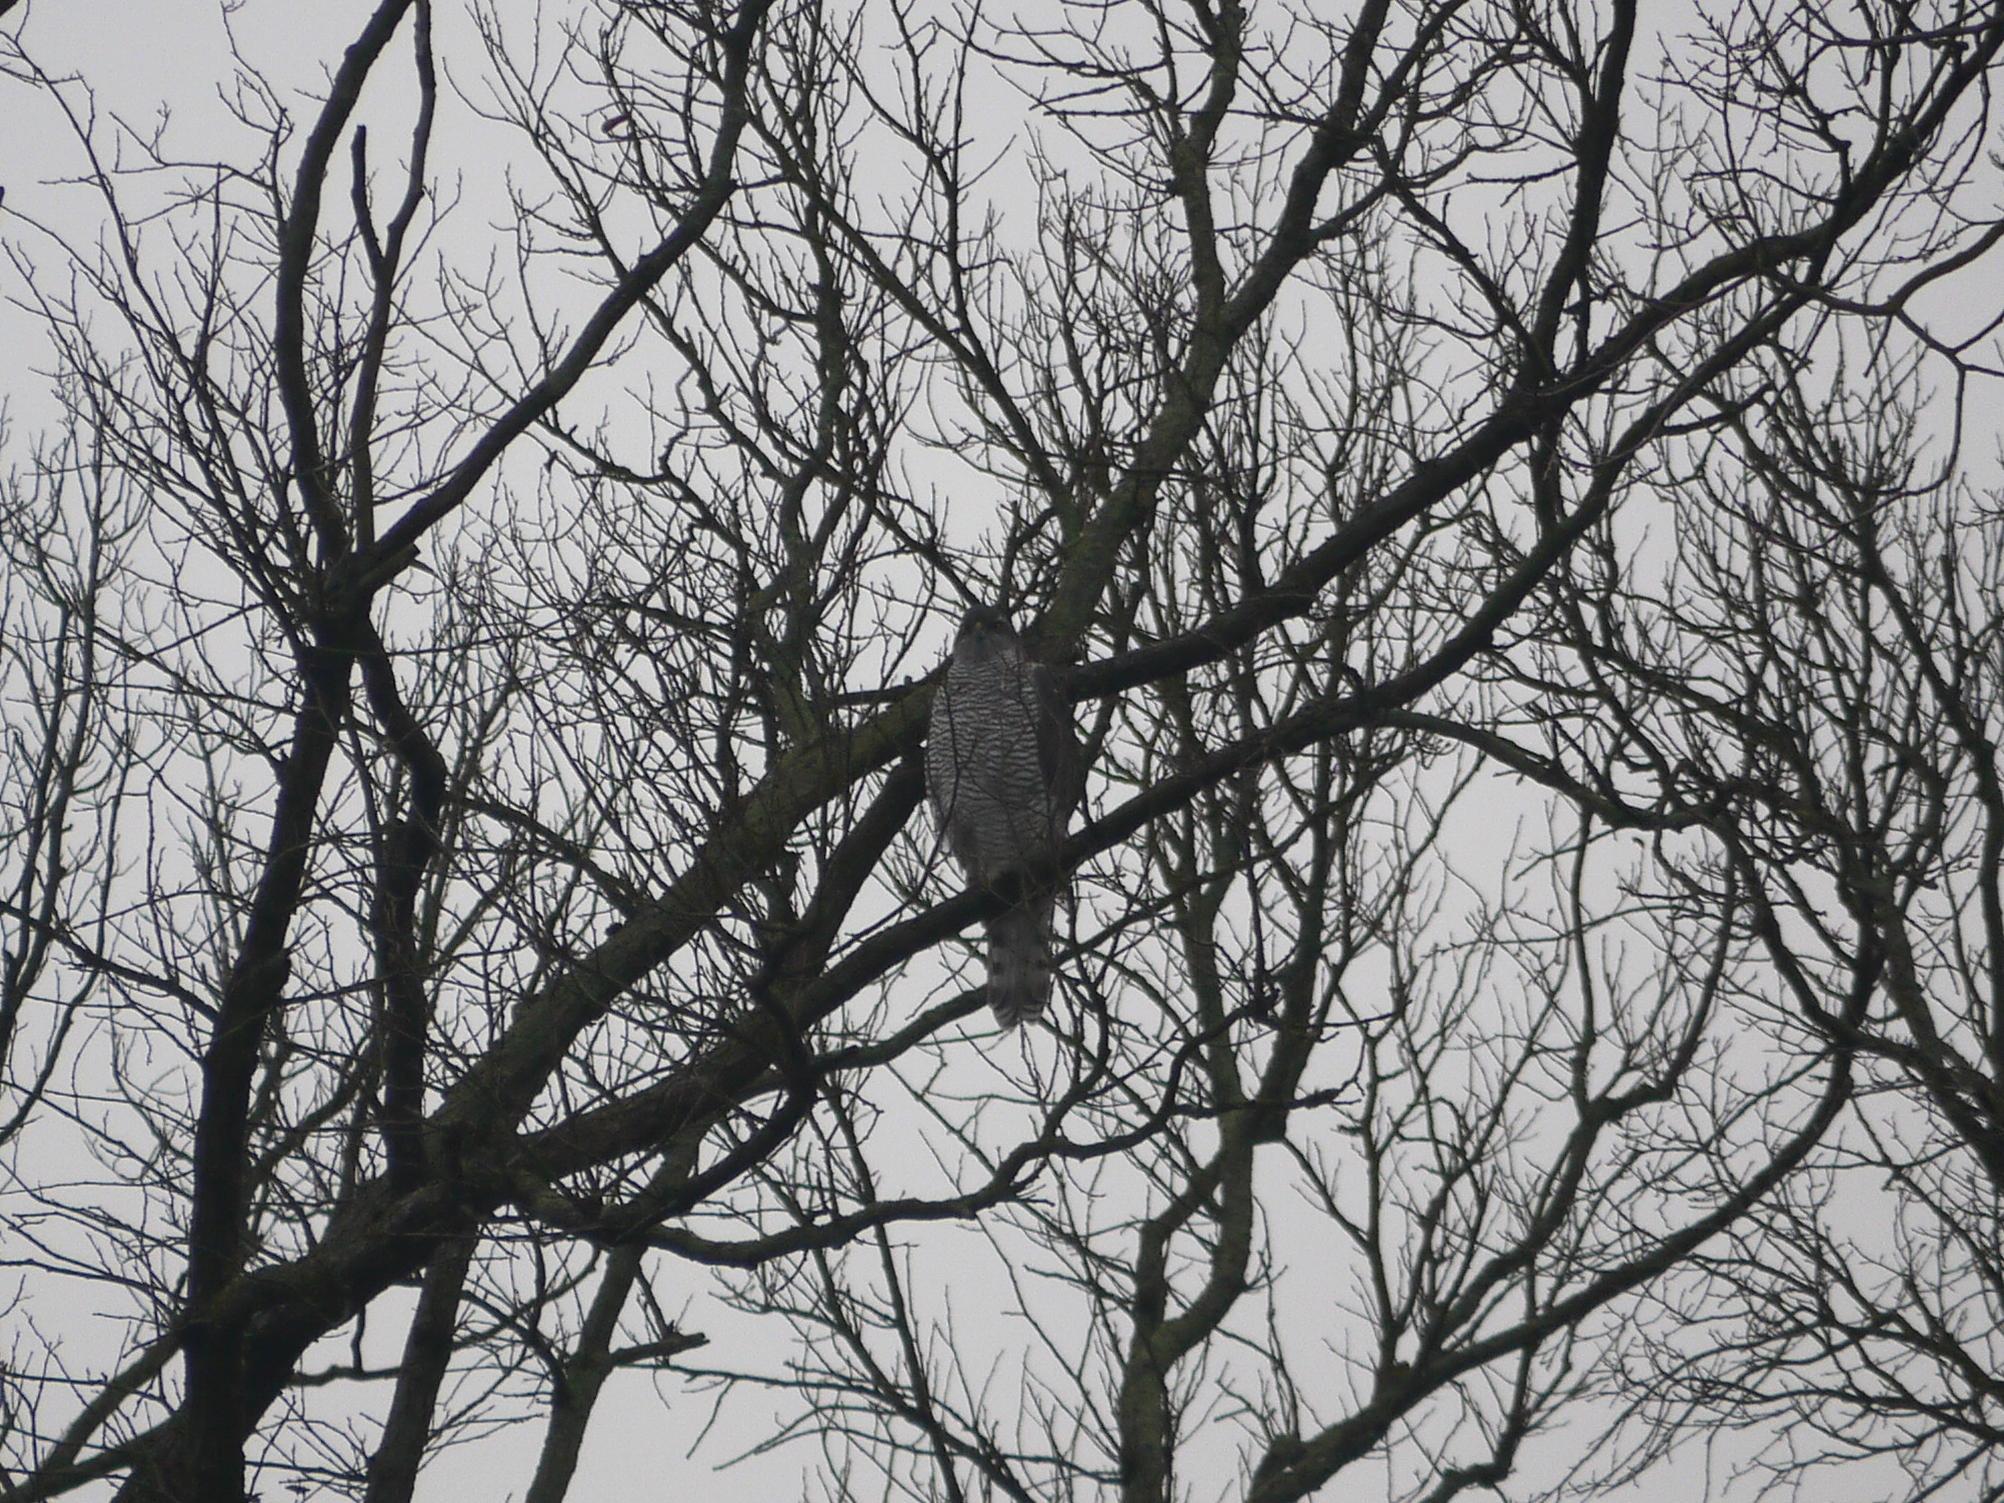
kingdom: Animalia
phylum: Chordata
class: Aves
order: Accipitriformes
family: Accipitridae
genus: Accipiter
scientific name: Accipiter gentilis
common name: Northern goshawk
